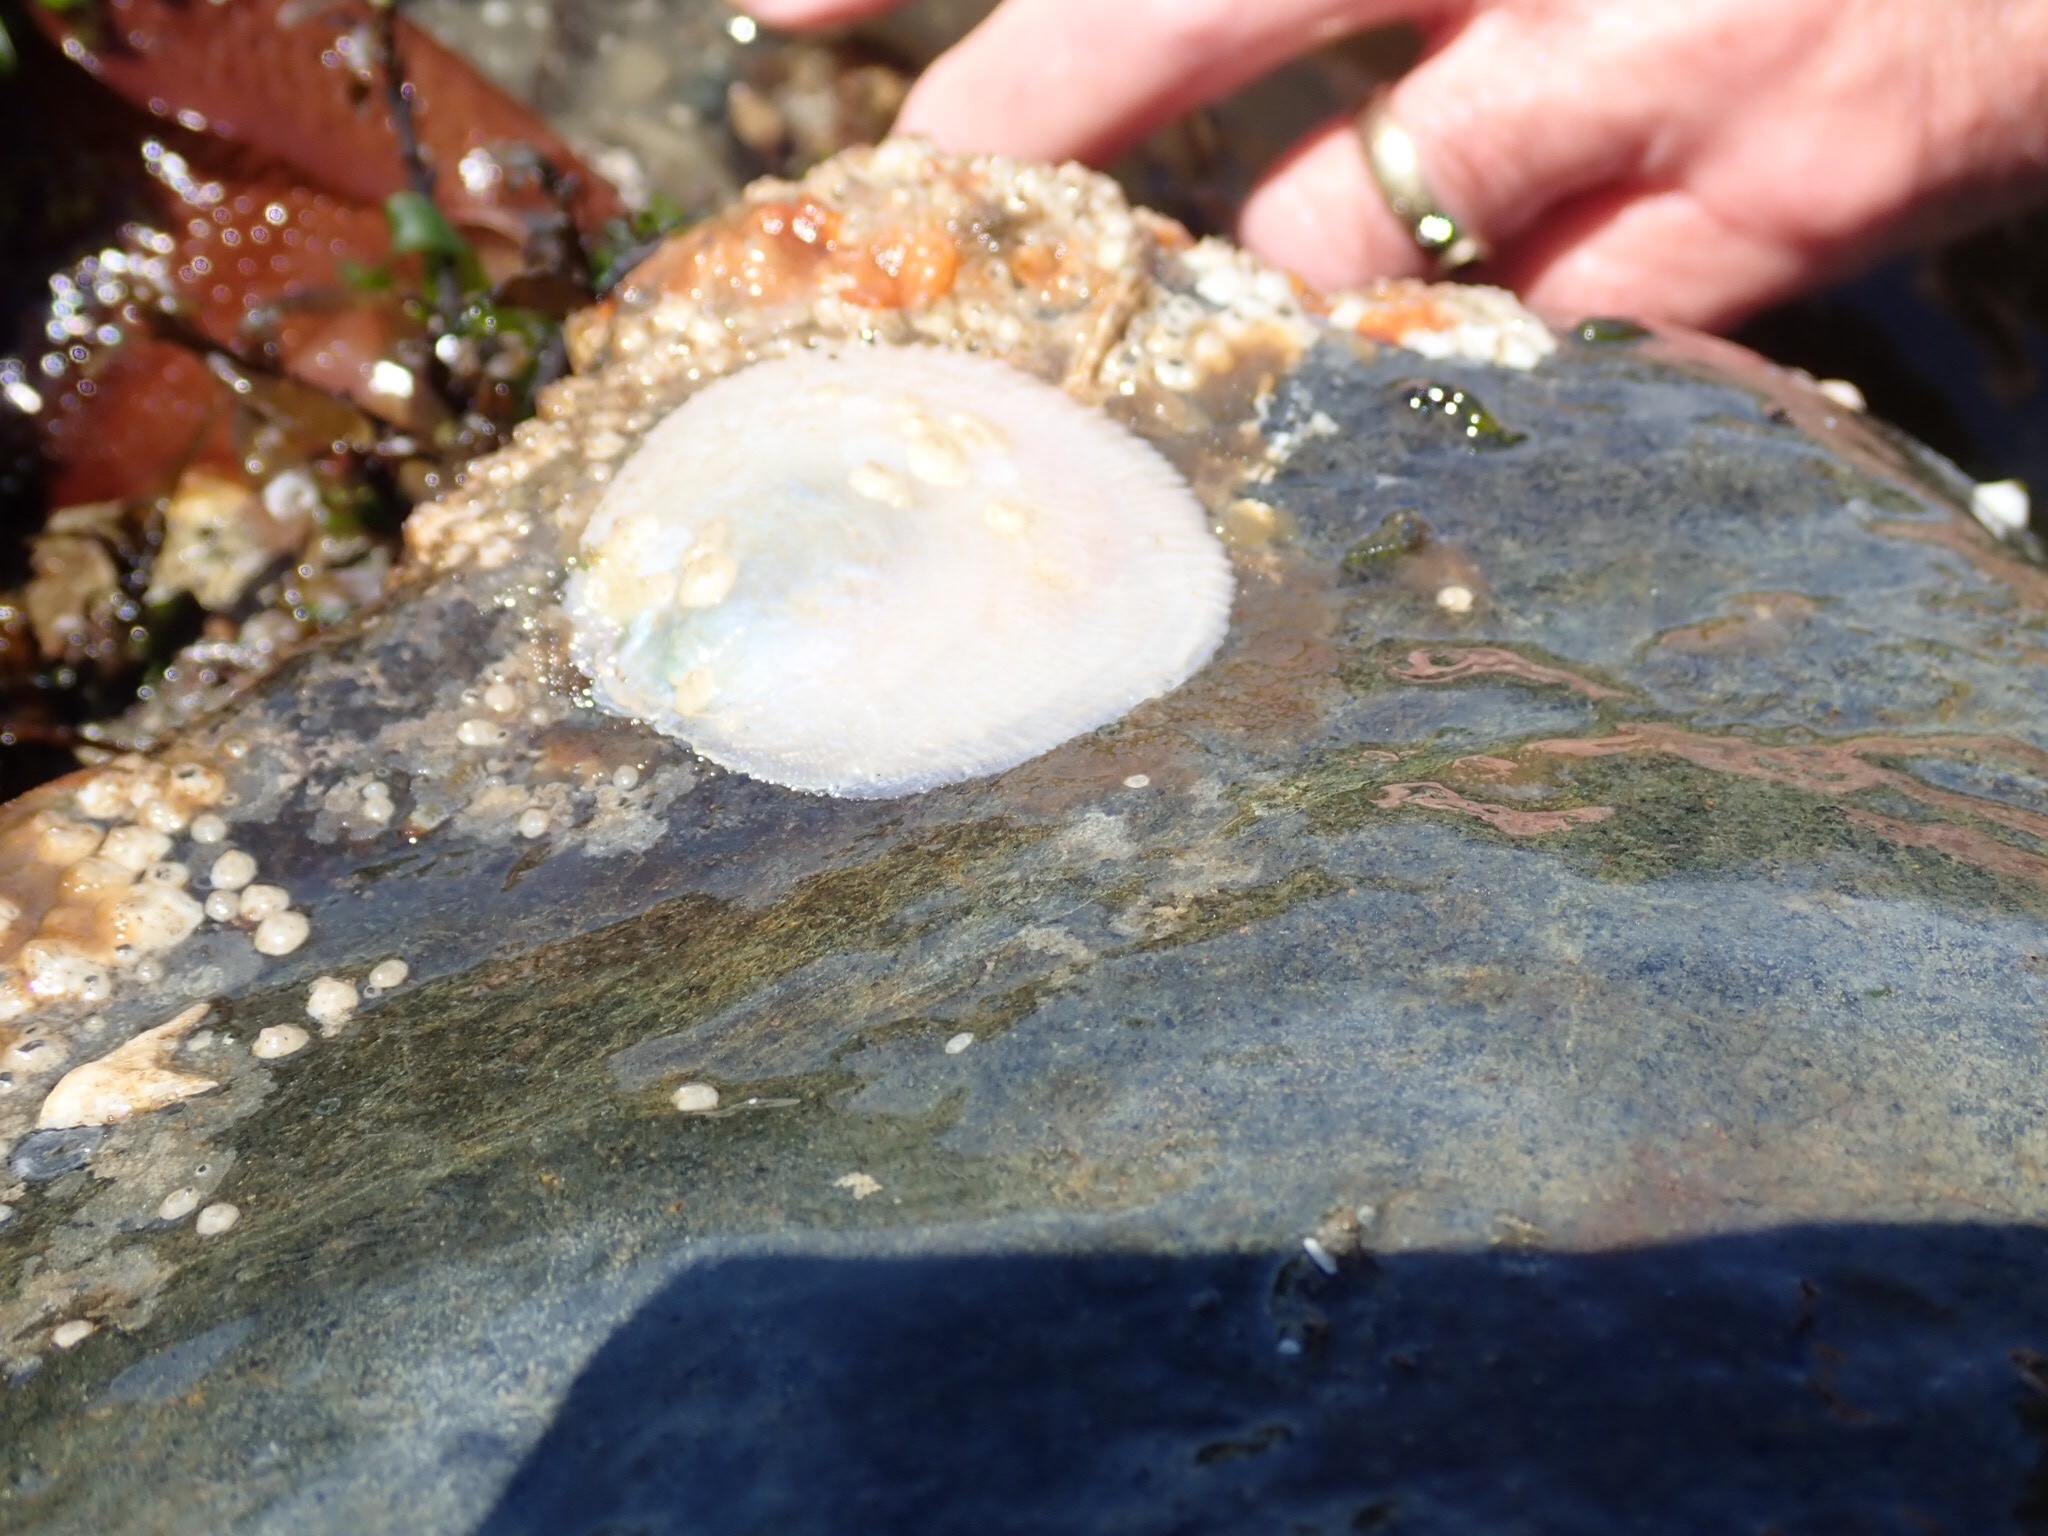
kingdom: Animalia
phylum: Mollusca
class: Bivalvia
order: Pectinida
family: Anomiidae
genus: Pododesmus
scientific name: Pododesmus macrochisma
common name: Alaska jingle
